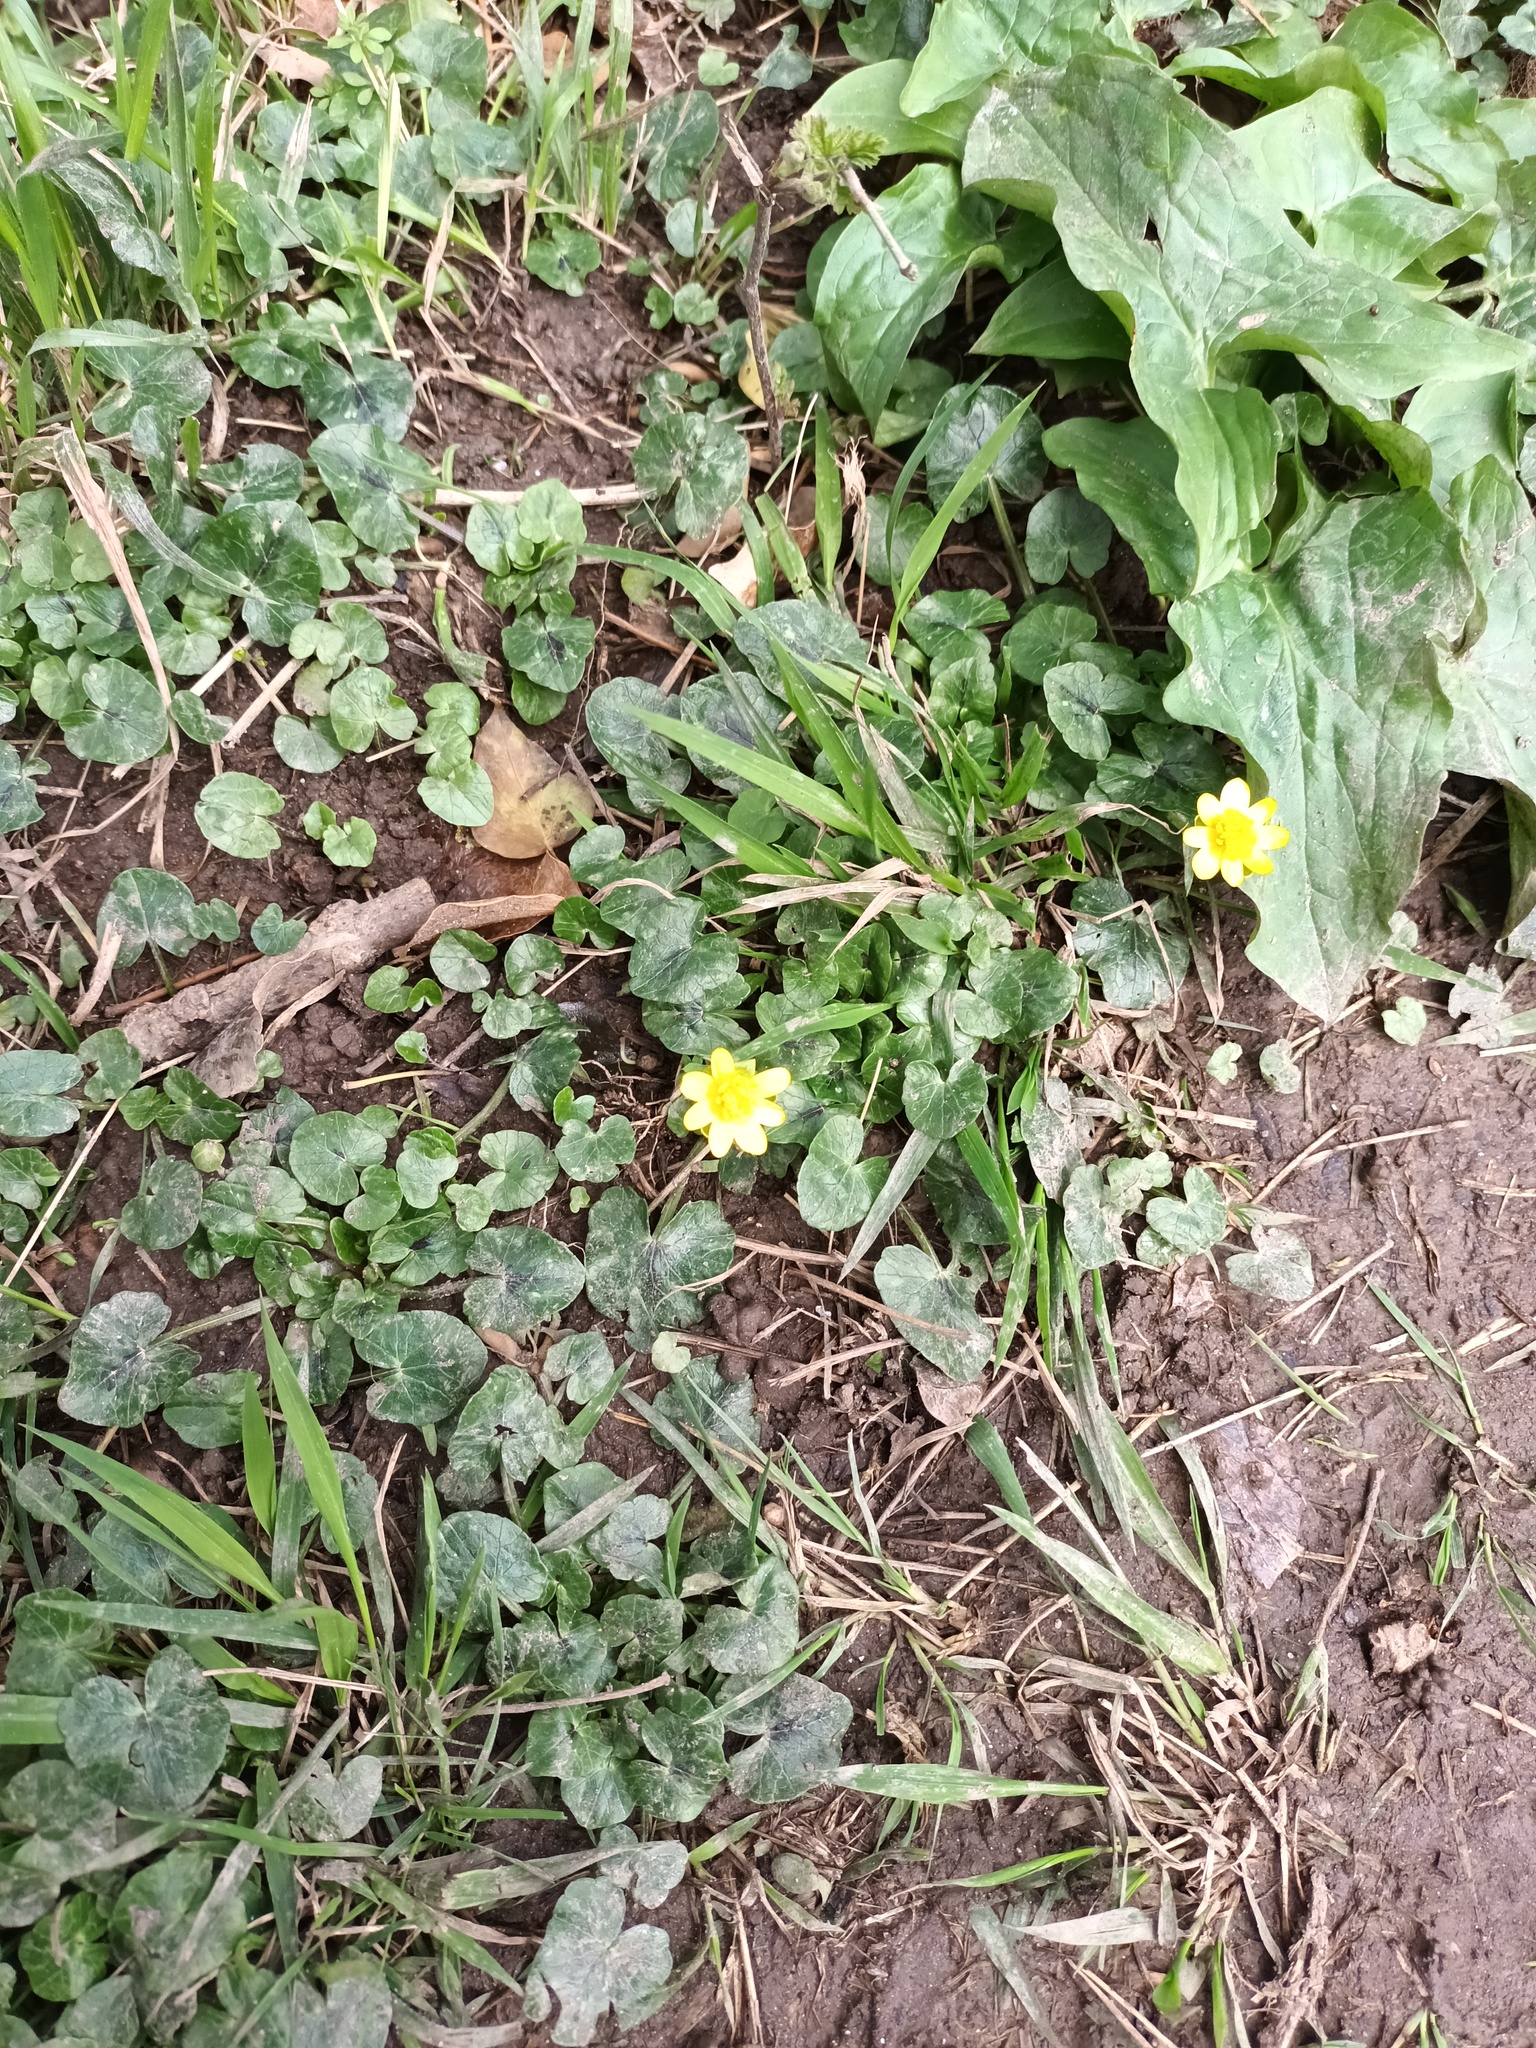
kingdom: Plantae
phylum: Tracheophyta
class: Magnoliopsida
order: Ranunculales
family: Ranunculaceae
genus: Ficaria
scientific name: Ficaria verna
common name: Lesser celandine
